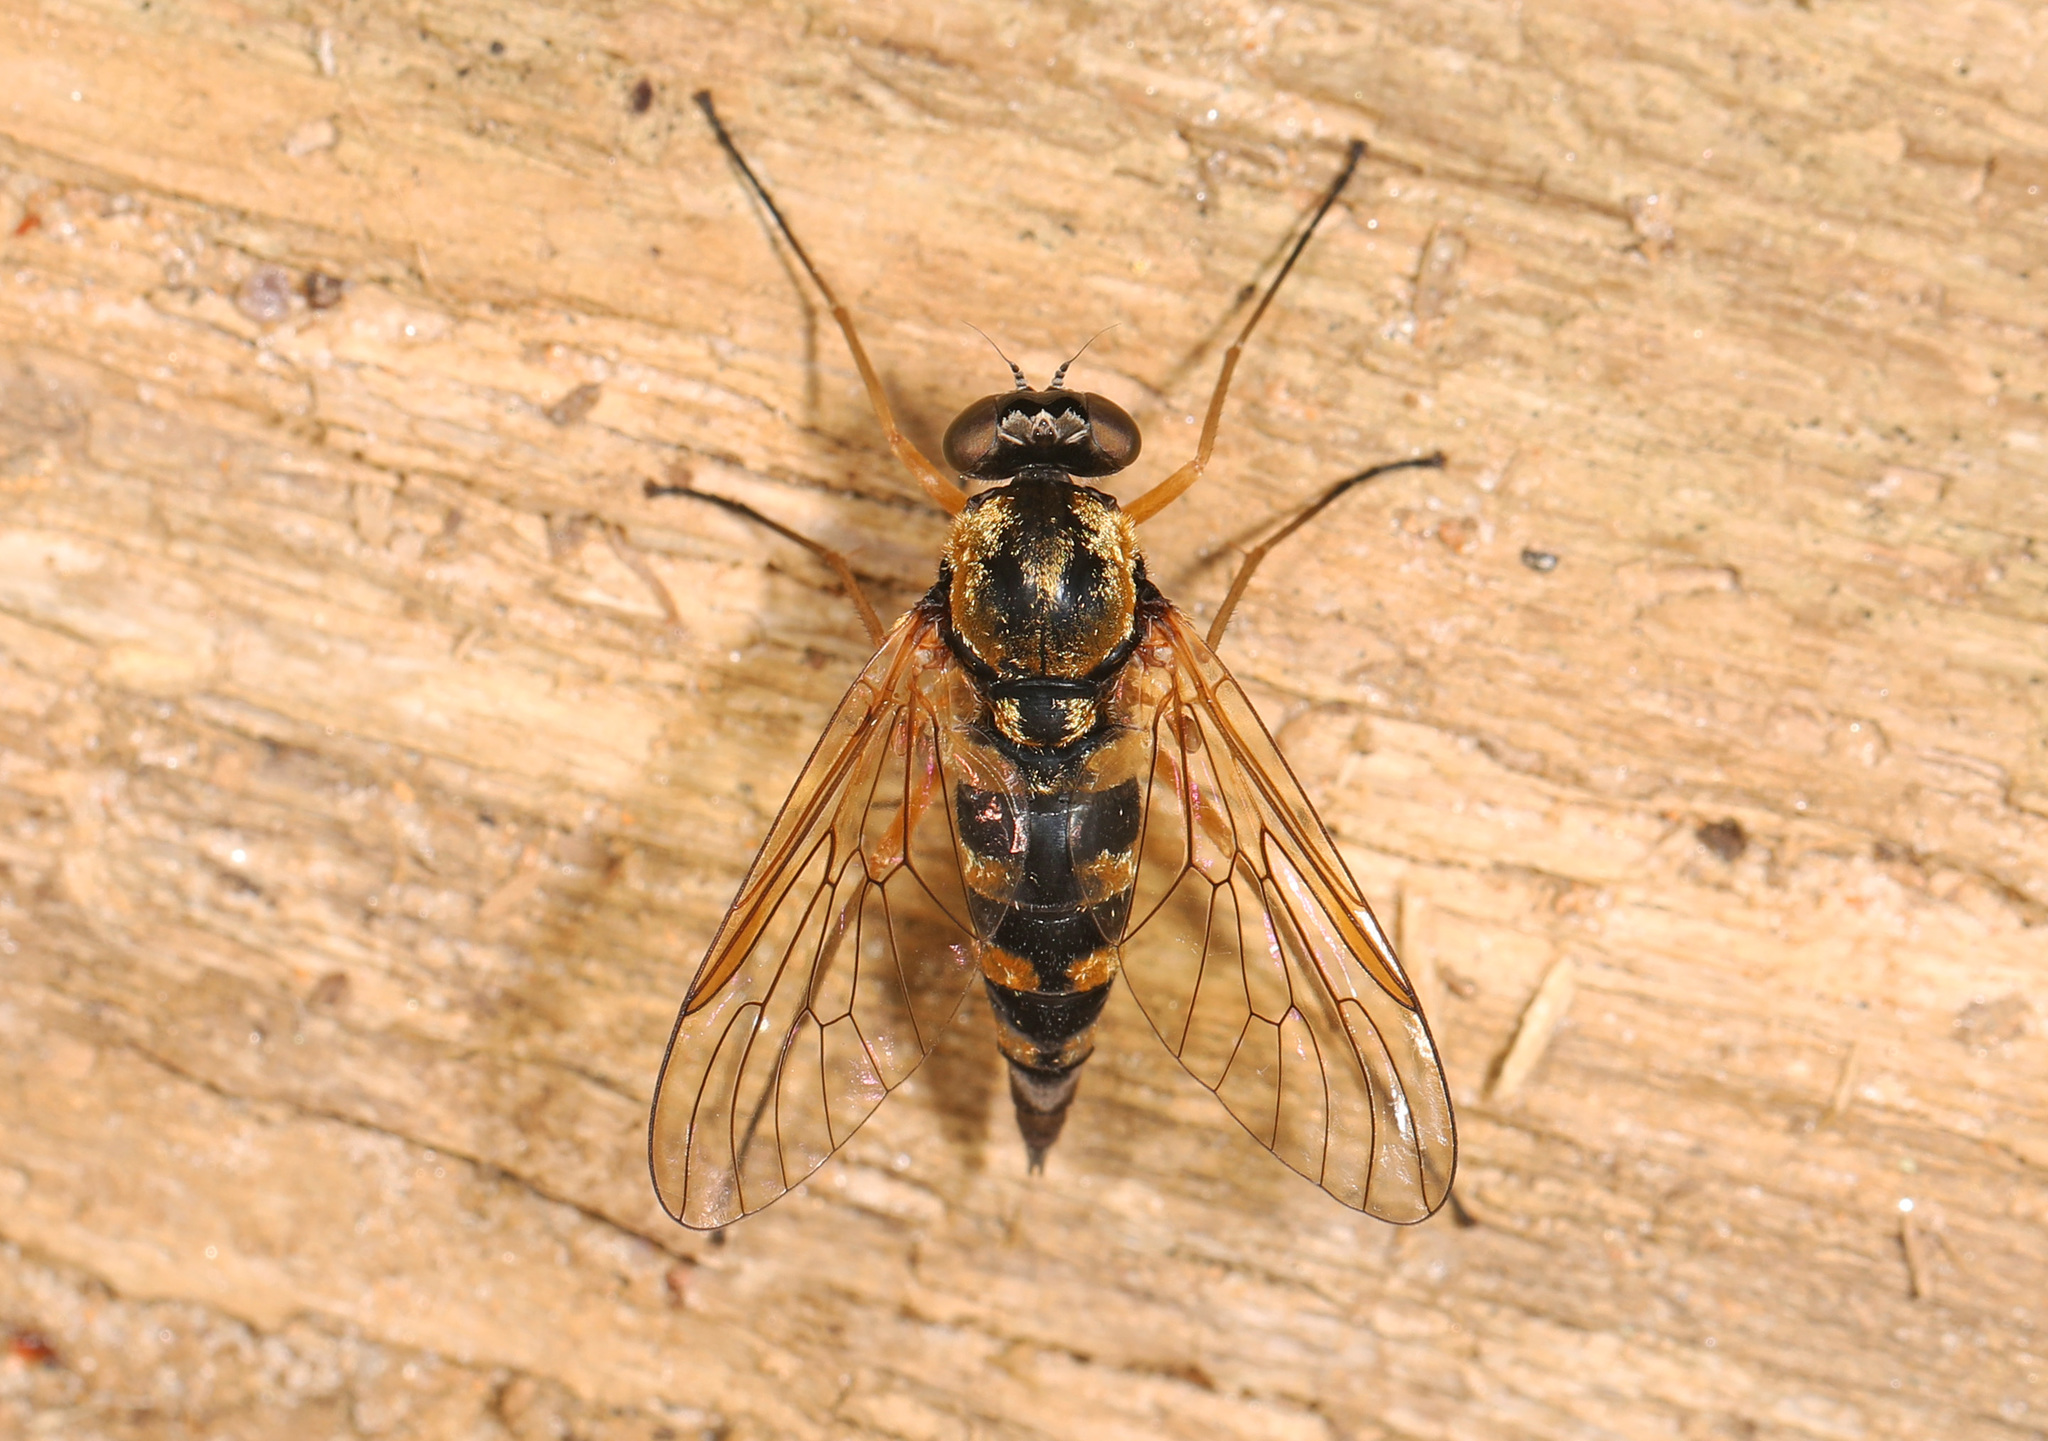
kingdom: Animalia
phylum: Arthropoda
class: Insecta
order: Diptera
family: Rhagionidae
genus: Chrysopilus
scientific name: Chrysopilus ornatus
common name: Ornate snipe fly
